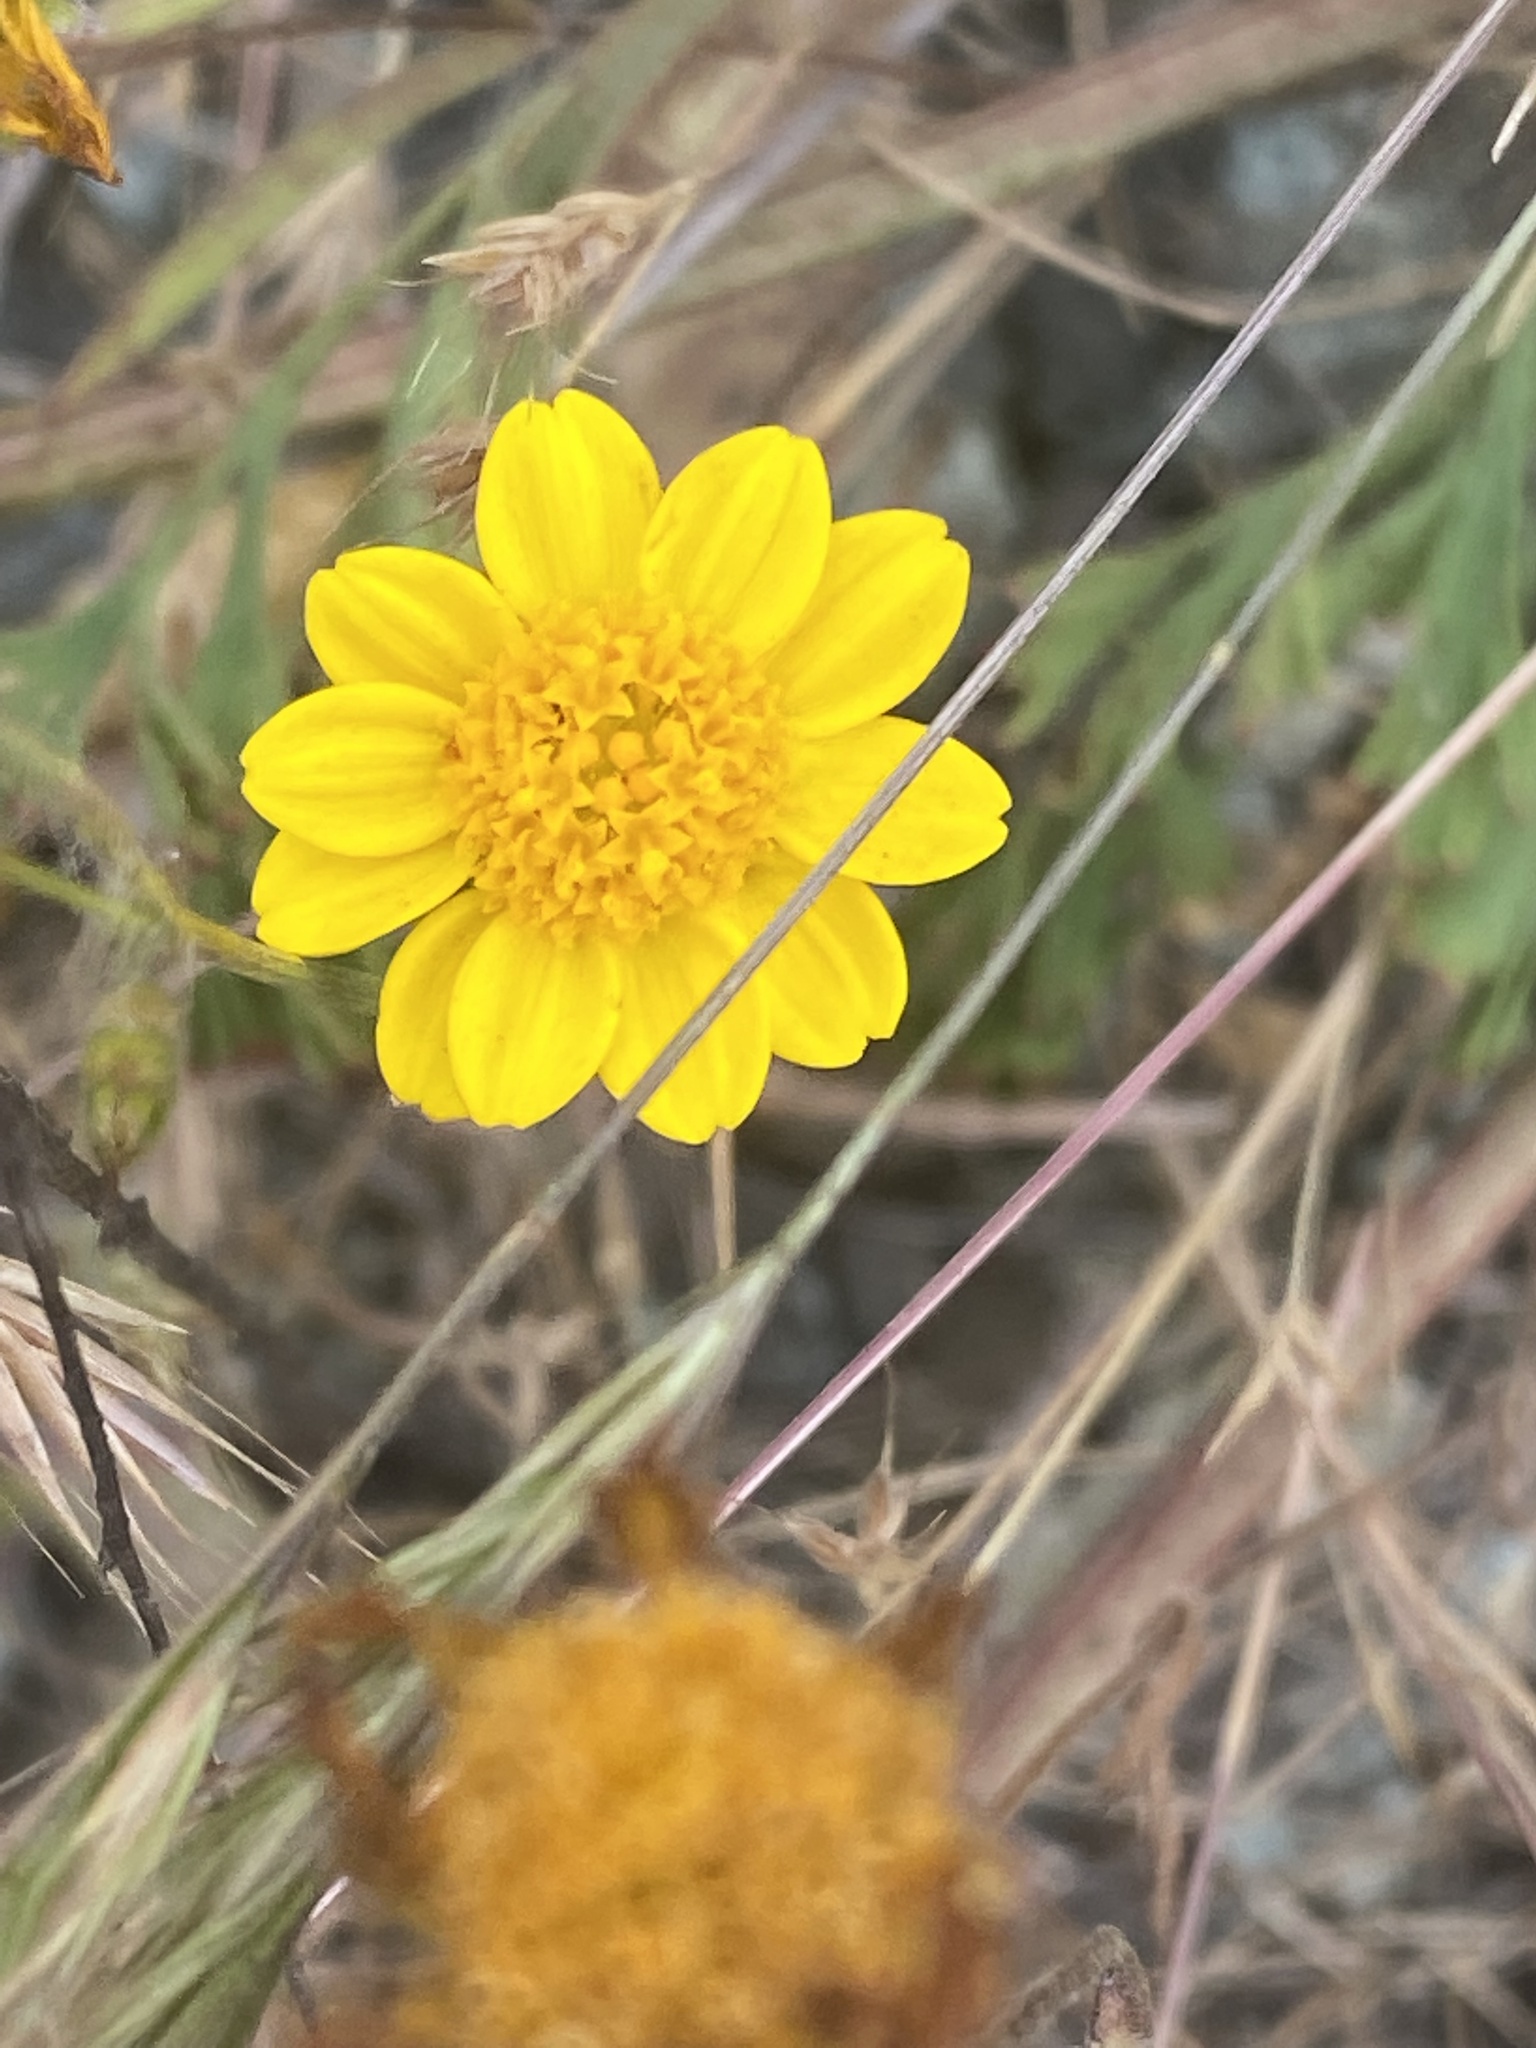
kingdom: Plantae
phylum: Tracheophyta
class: Magnoliopsida
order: Asterales
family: Asteraceae
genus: Lasthenia
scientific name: Lasthenia californica
